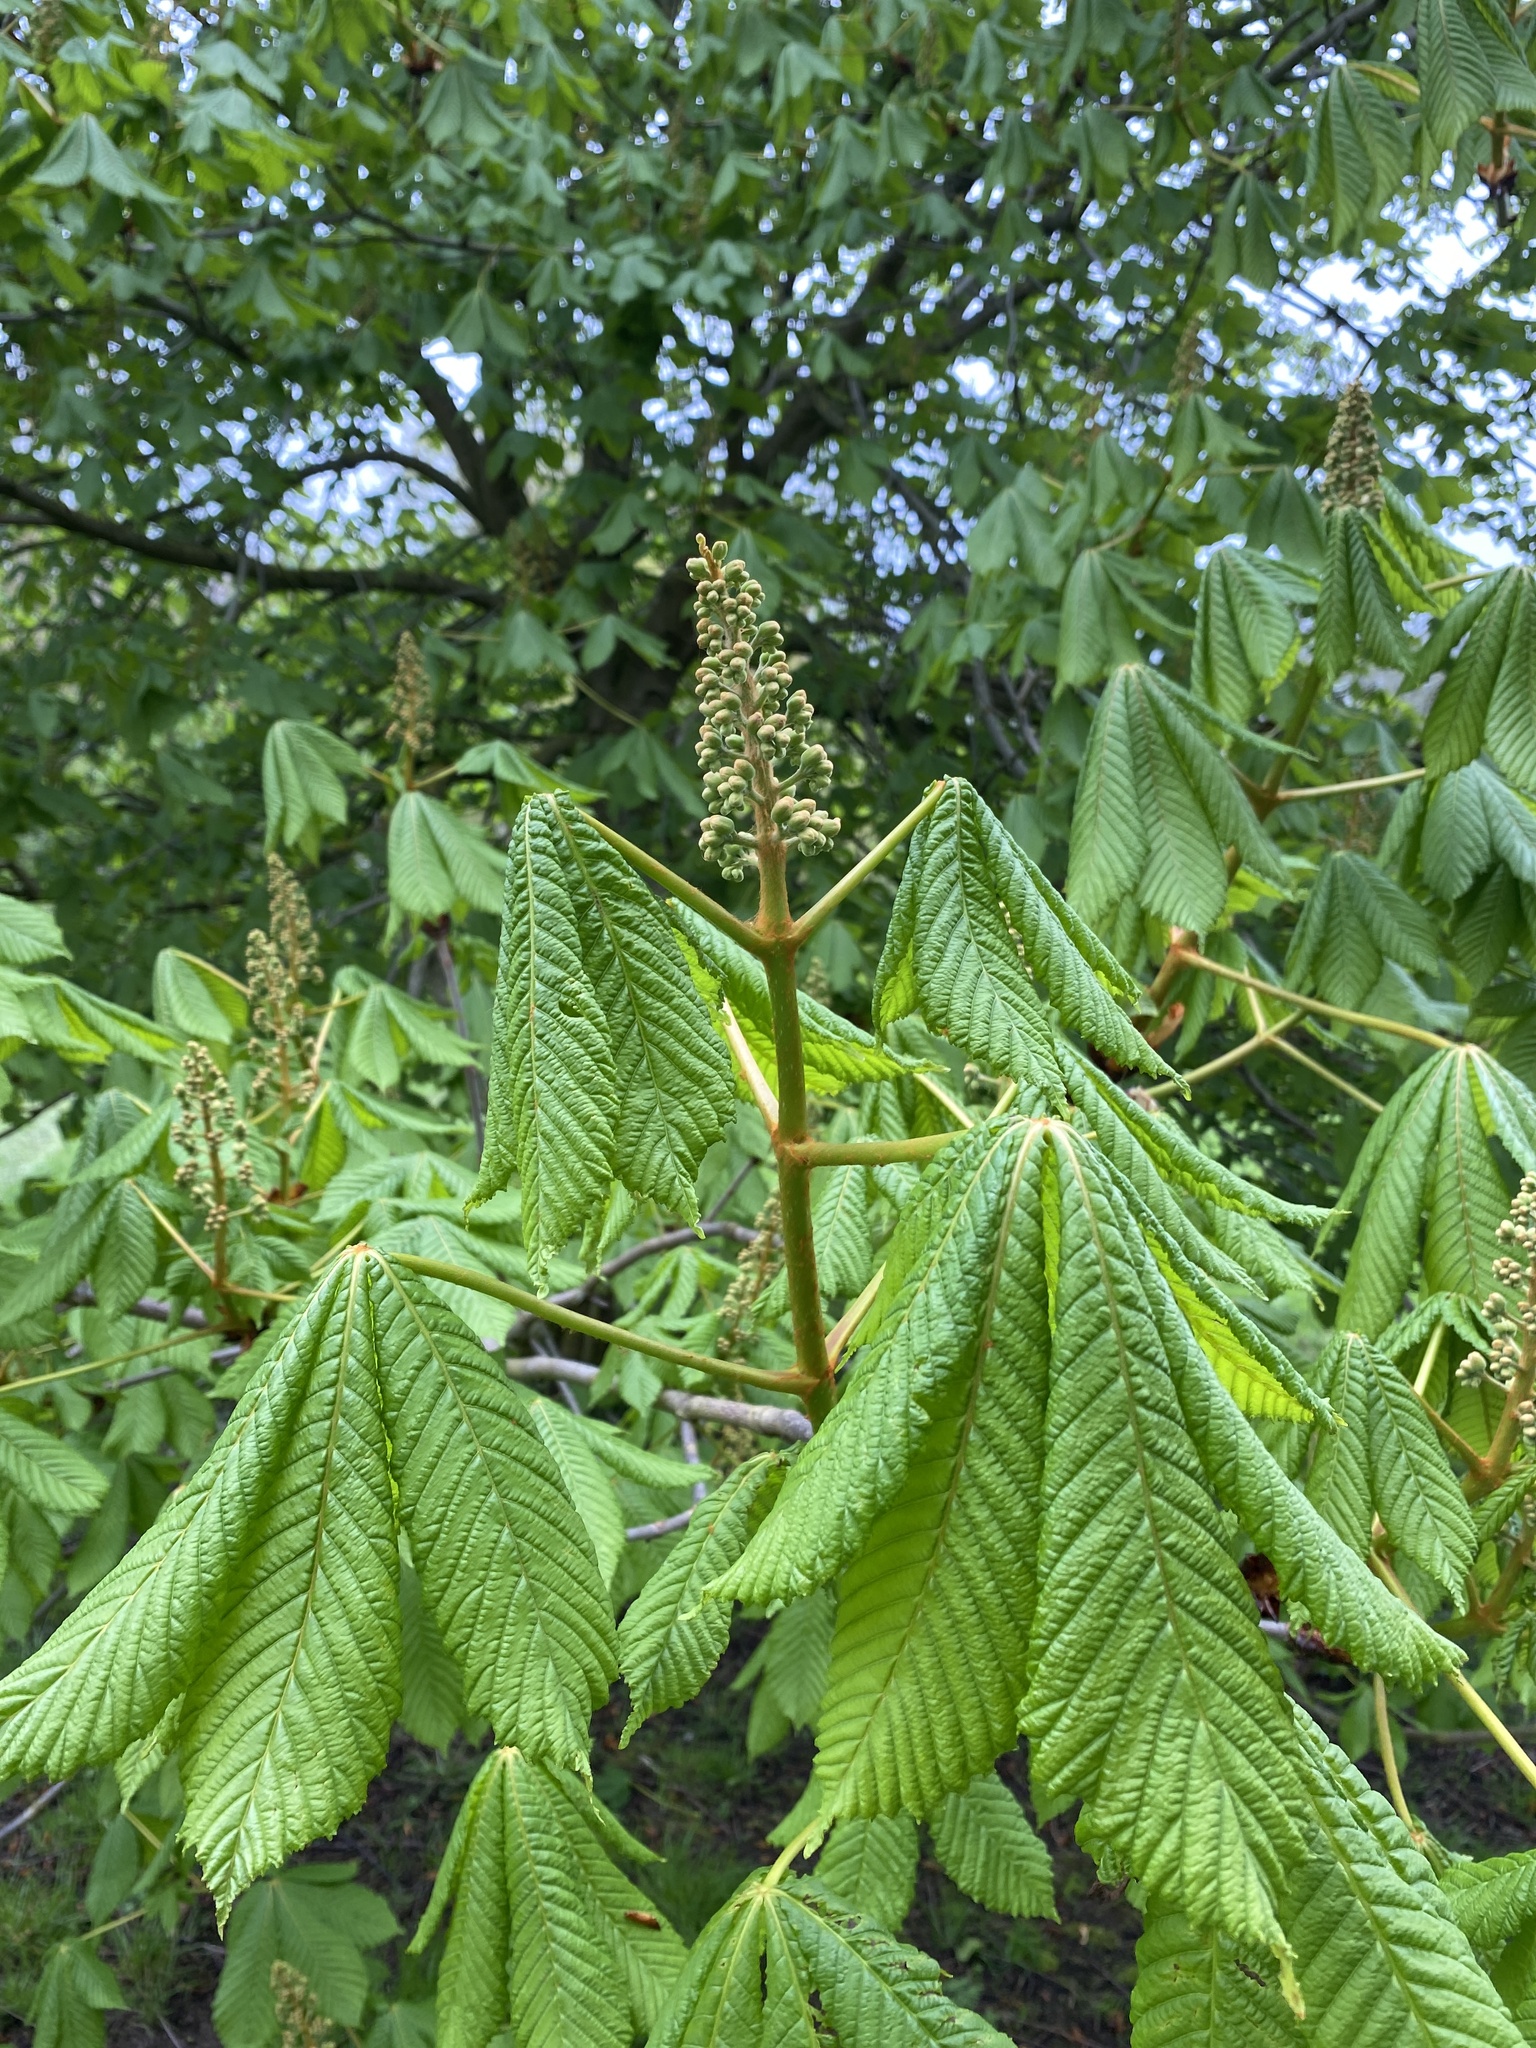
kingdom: Plantae
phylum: Tracheophyta
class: Magnoliopsida
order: Sapindales
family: Sapindaceae
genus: Aesculus
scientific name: Aesculus hippocastanum
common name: Horse-chestnut
